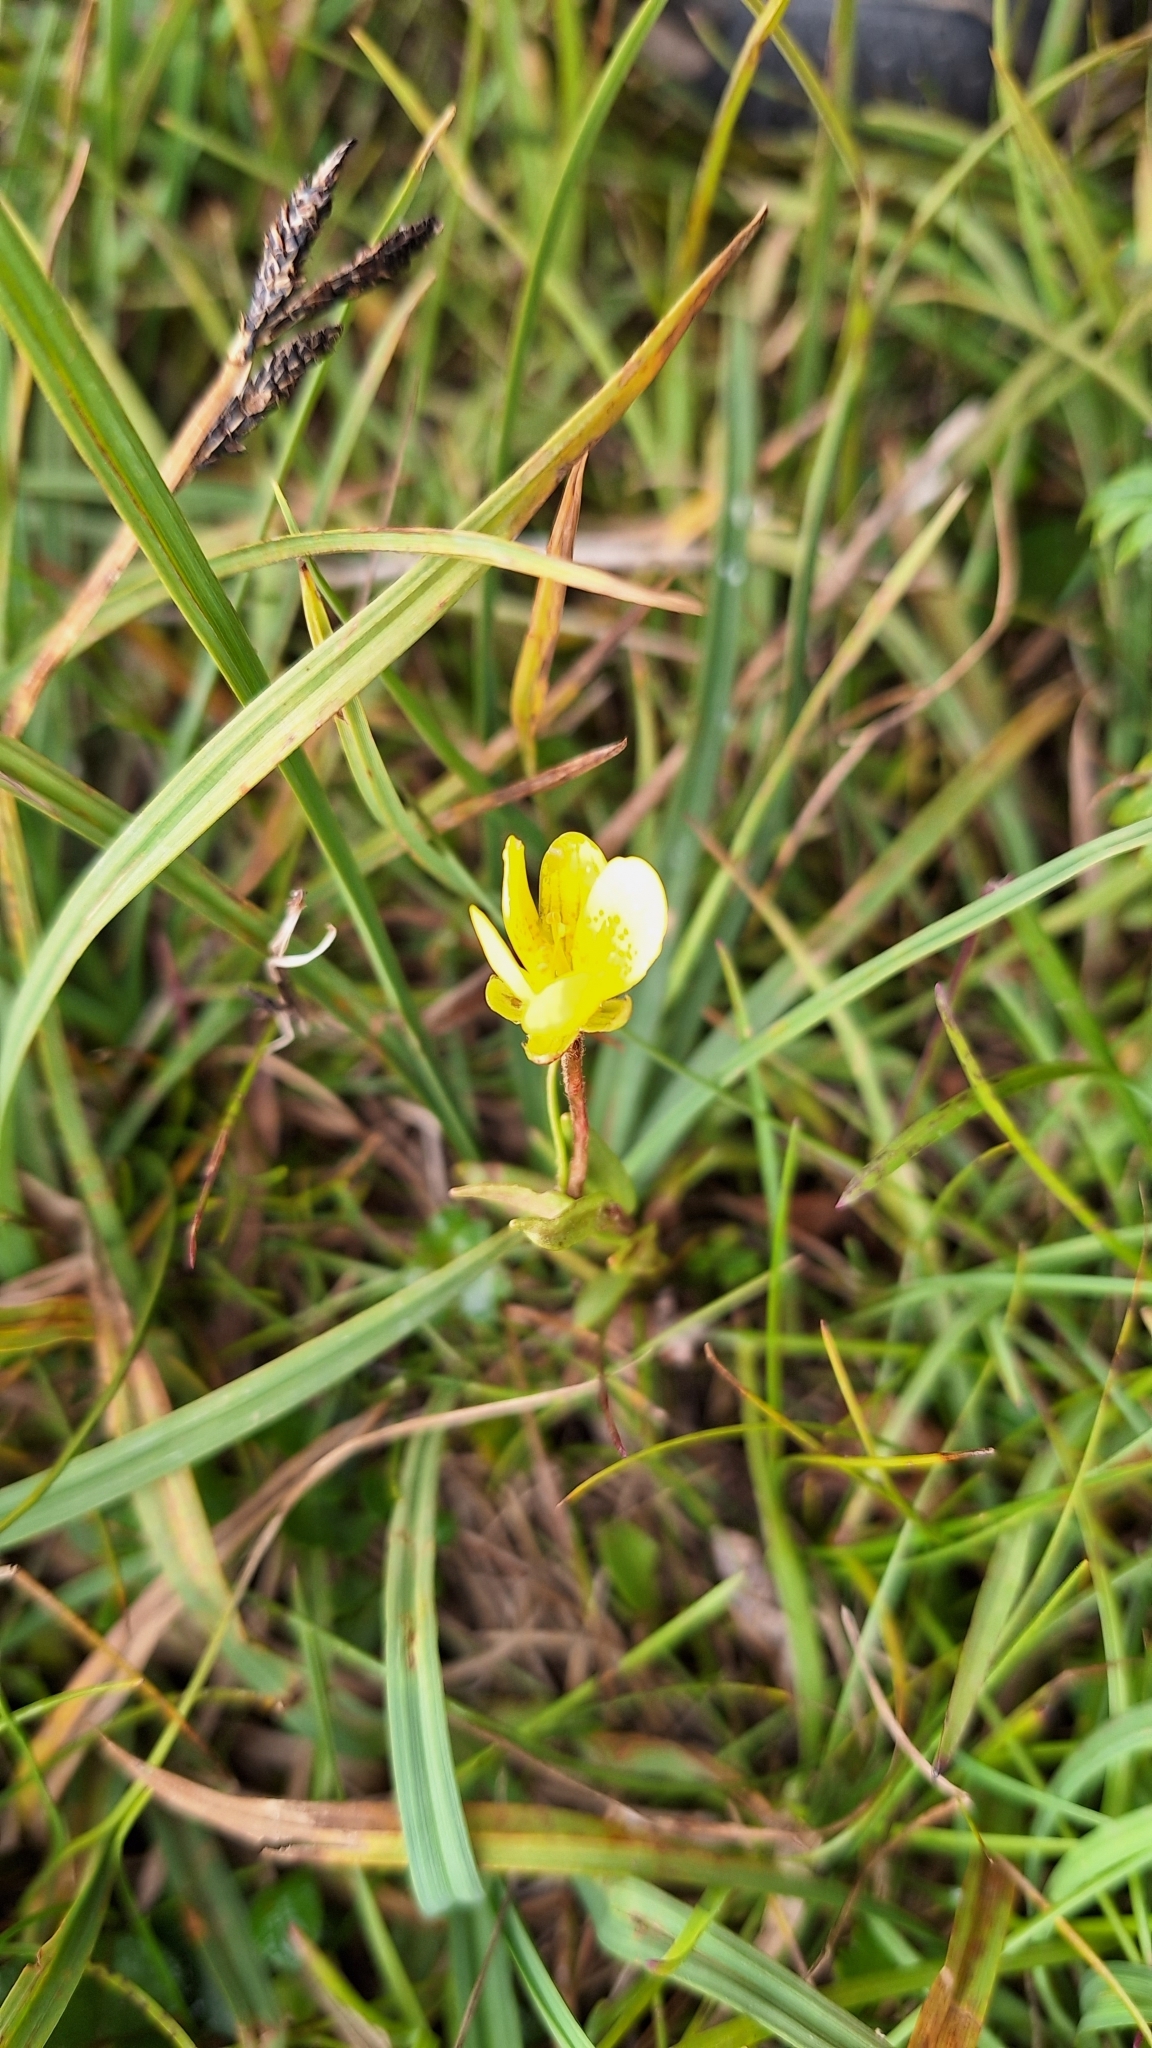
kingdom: Plantae
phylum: Tracheophyta
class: Magnoliopsida
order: Saxifragales
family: Saxifragaceae
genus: Saxifraga
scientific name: Saxifraga hirculus
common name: Yellow marsh saxifrage
